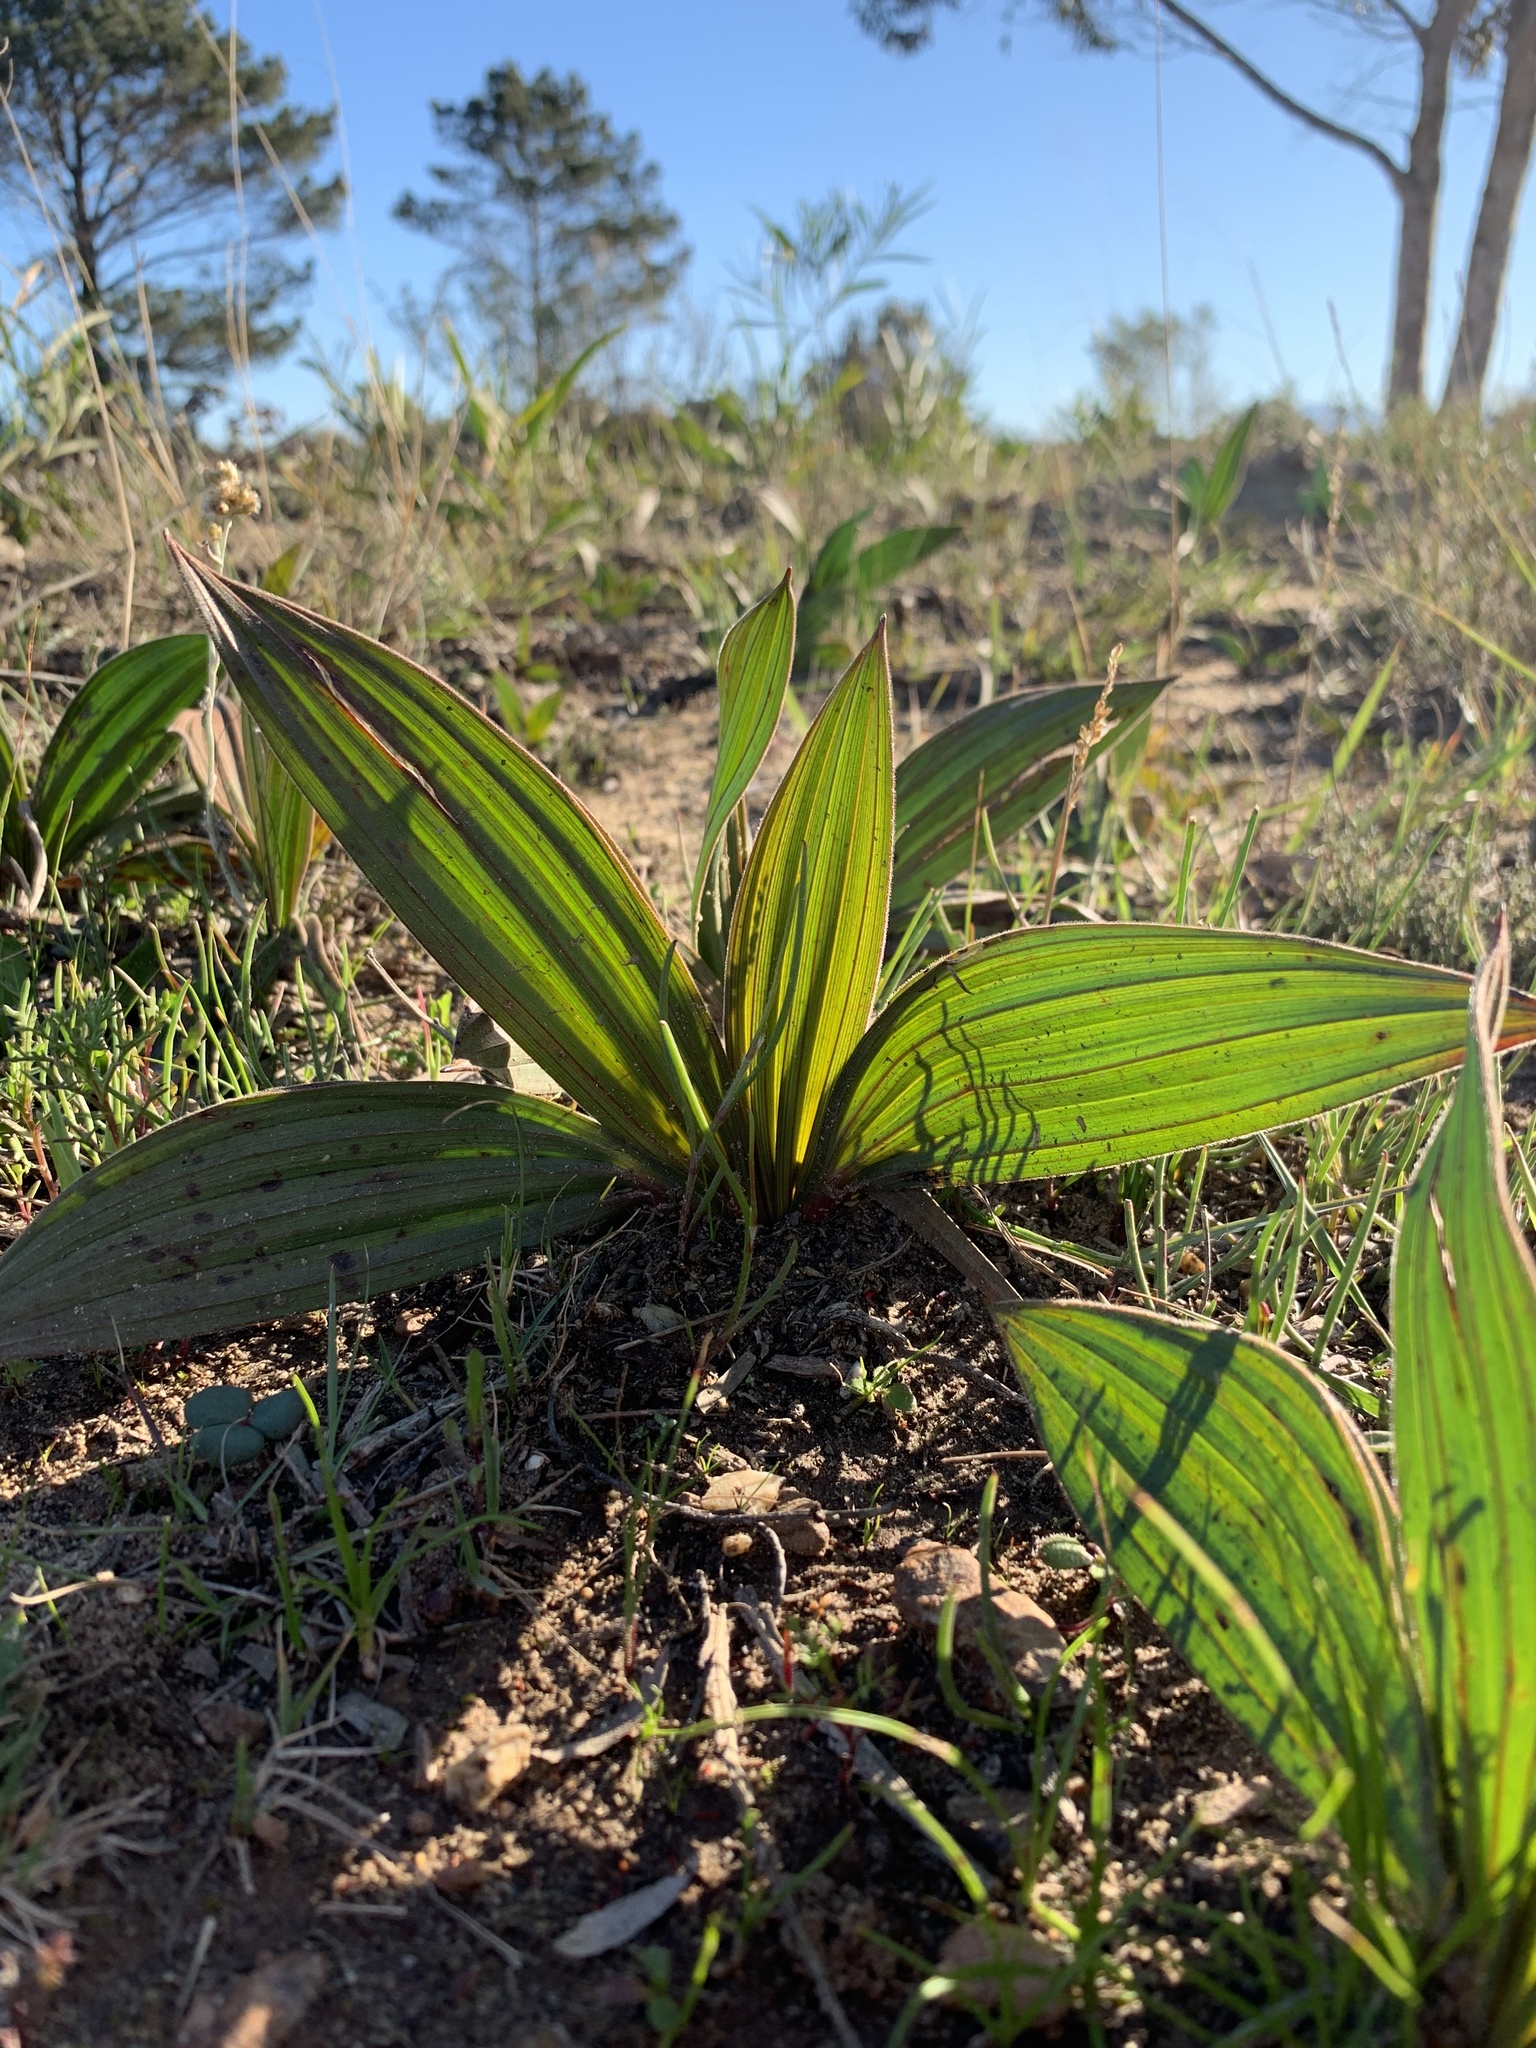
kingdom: Plantae
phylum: Tracheophyta
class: Liliopsida
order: Commelinales
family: Haemodoraceae
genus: Wachendorfia
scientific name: Wachendorfia paniculata
